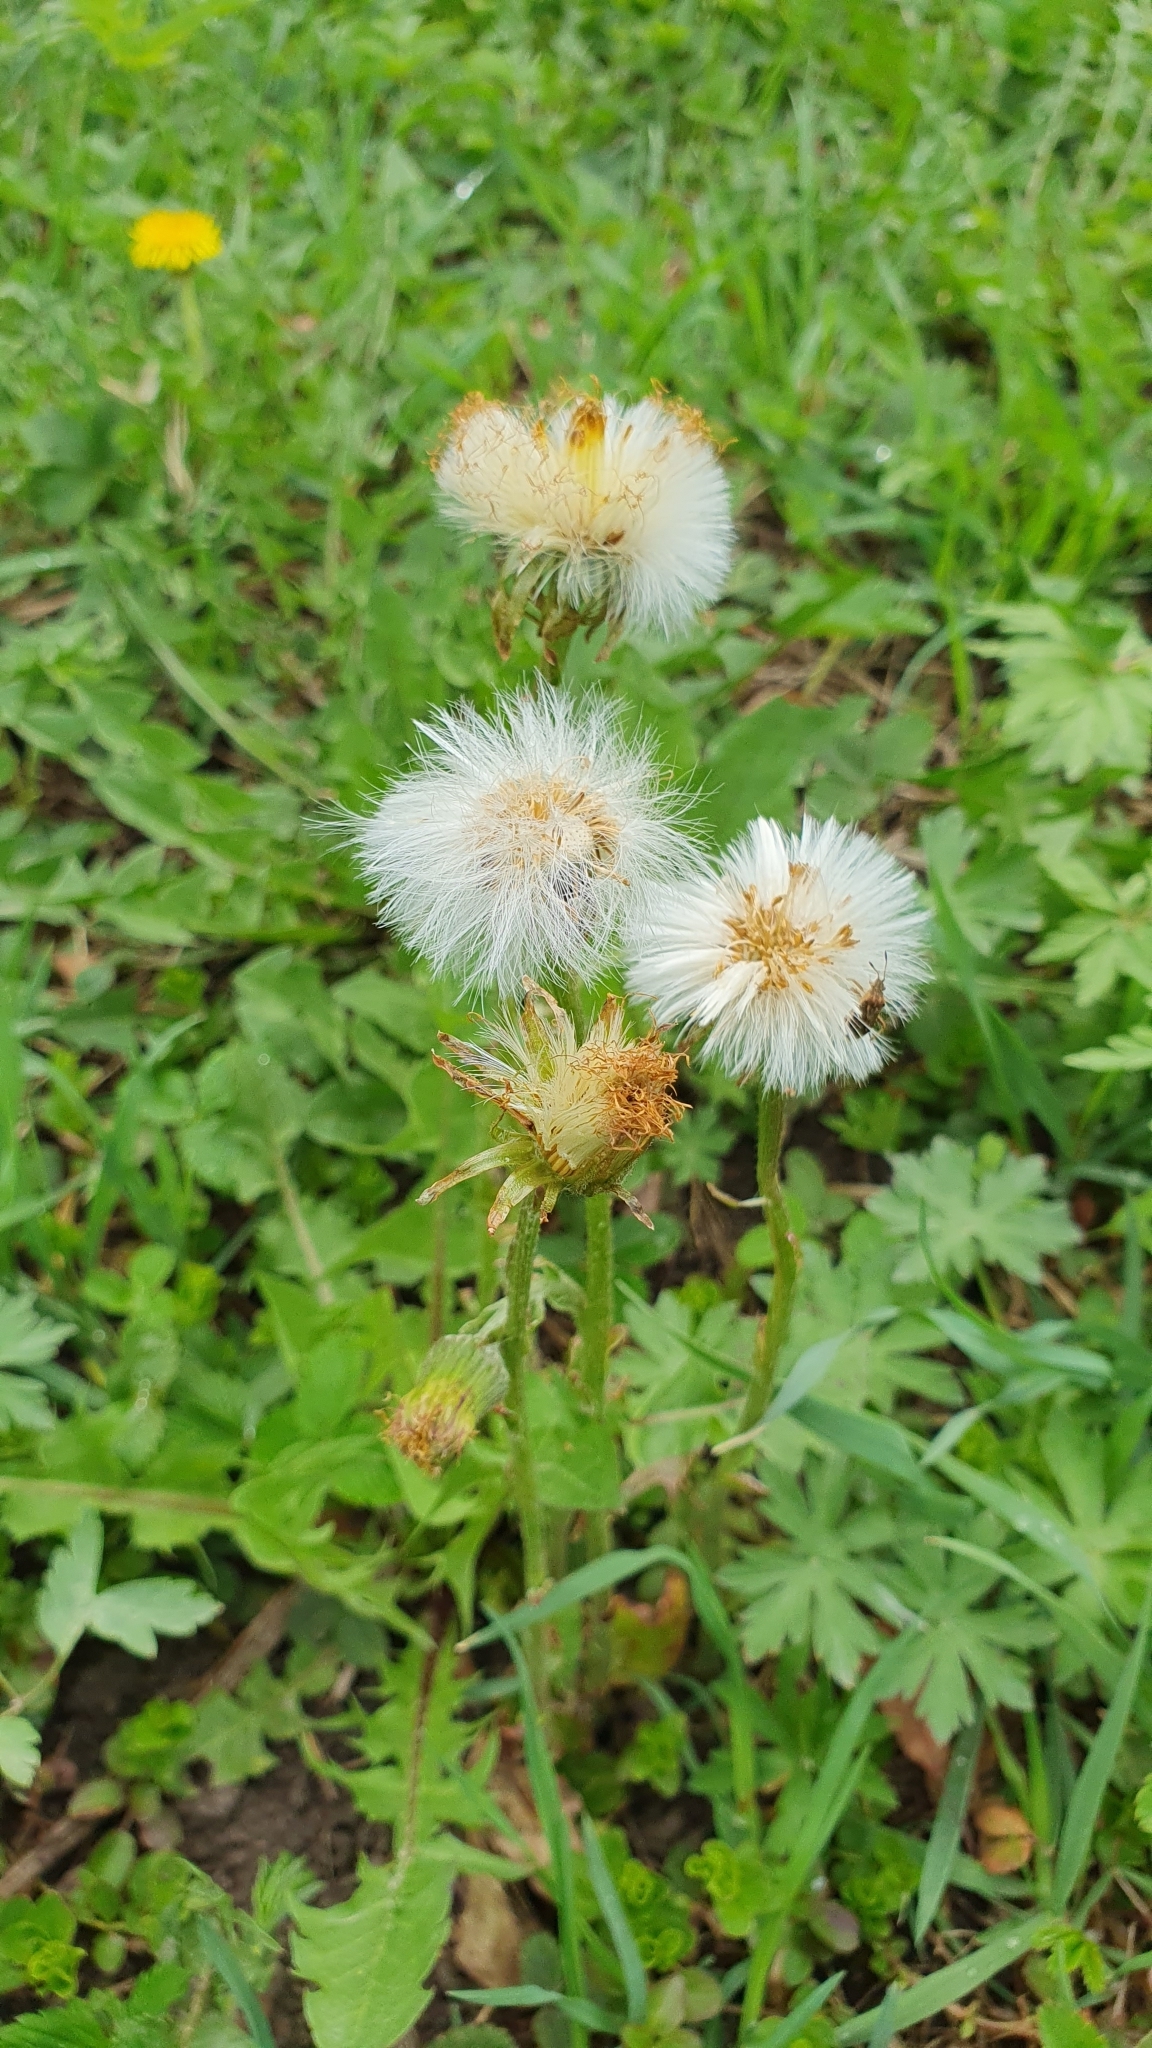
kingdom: Plantae
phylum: Tracheophyta
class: Magnoliopsida
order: Asterales
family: Asteraceae
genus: Tussilago
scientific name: Tussilago farfara
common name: Coltsfoot
